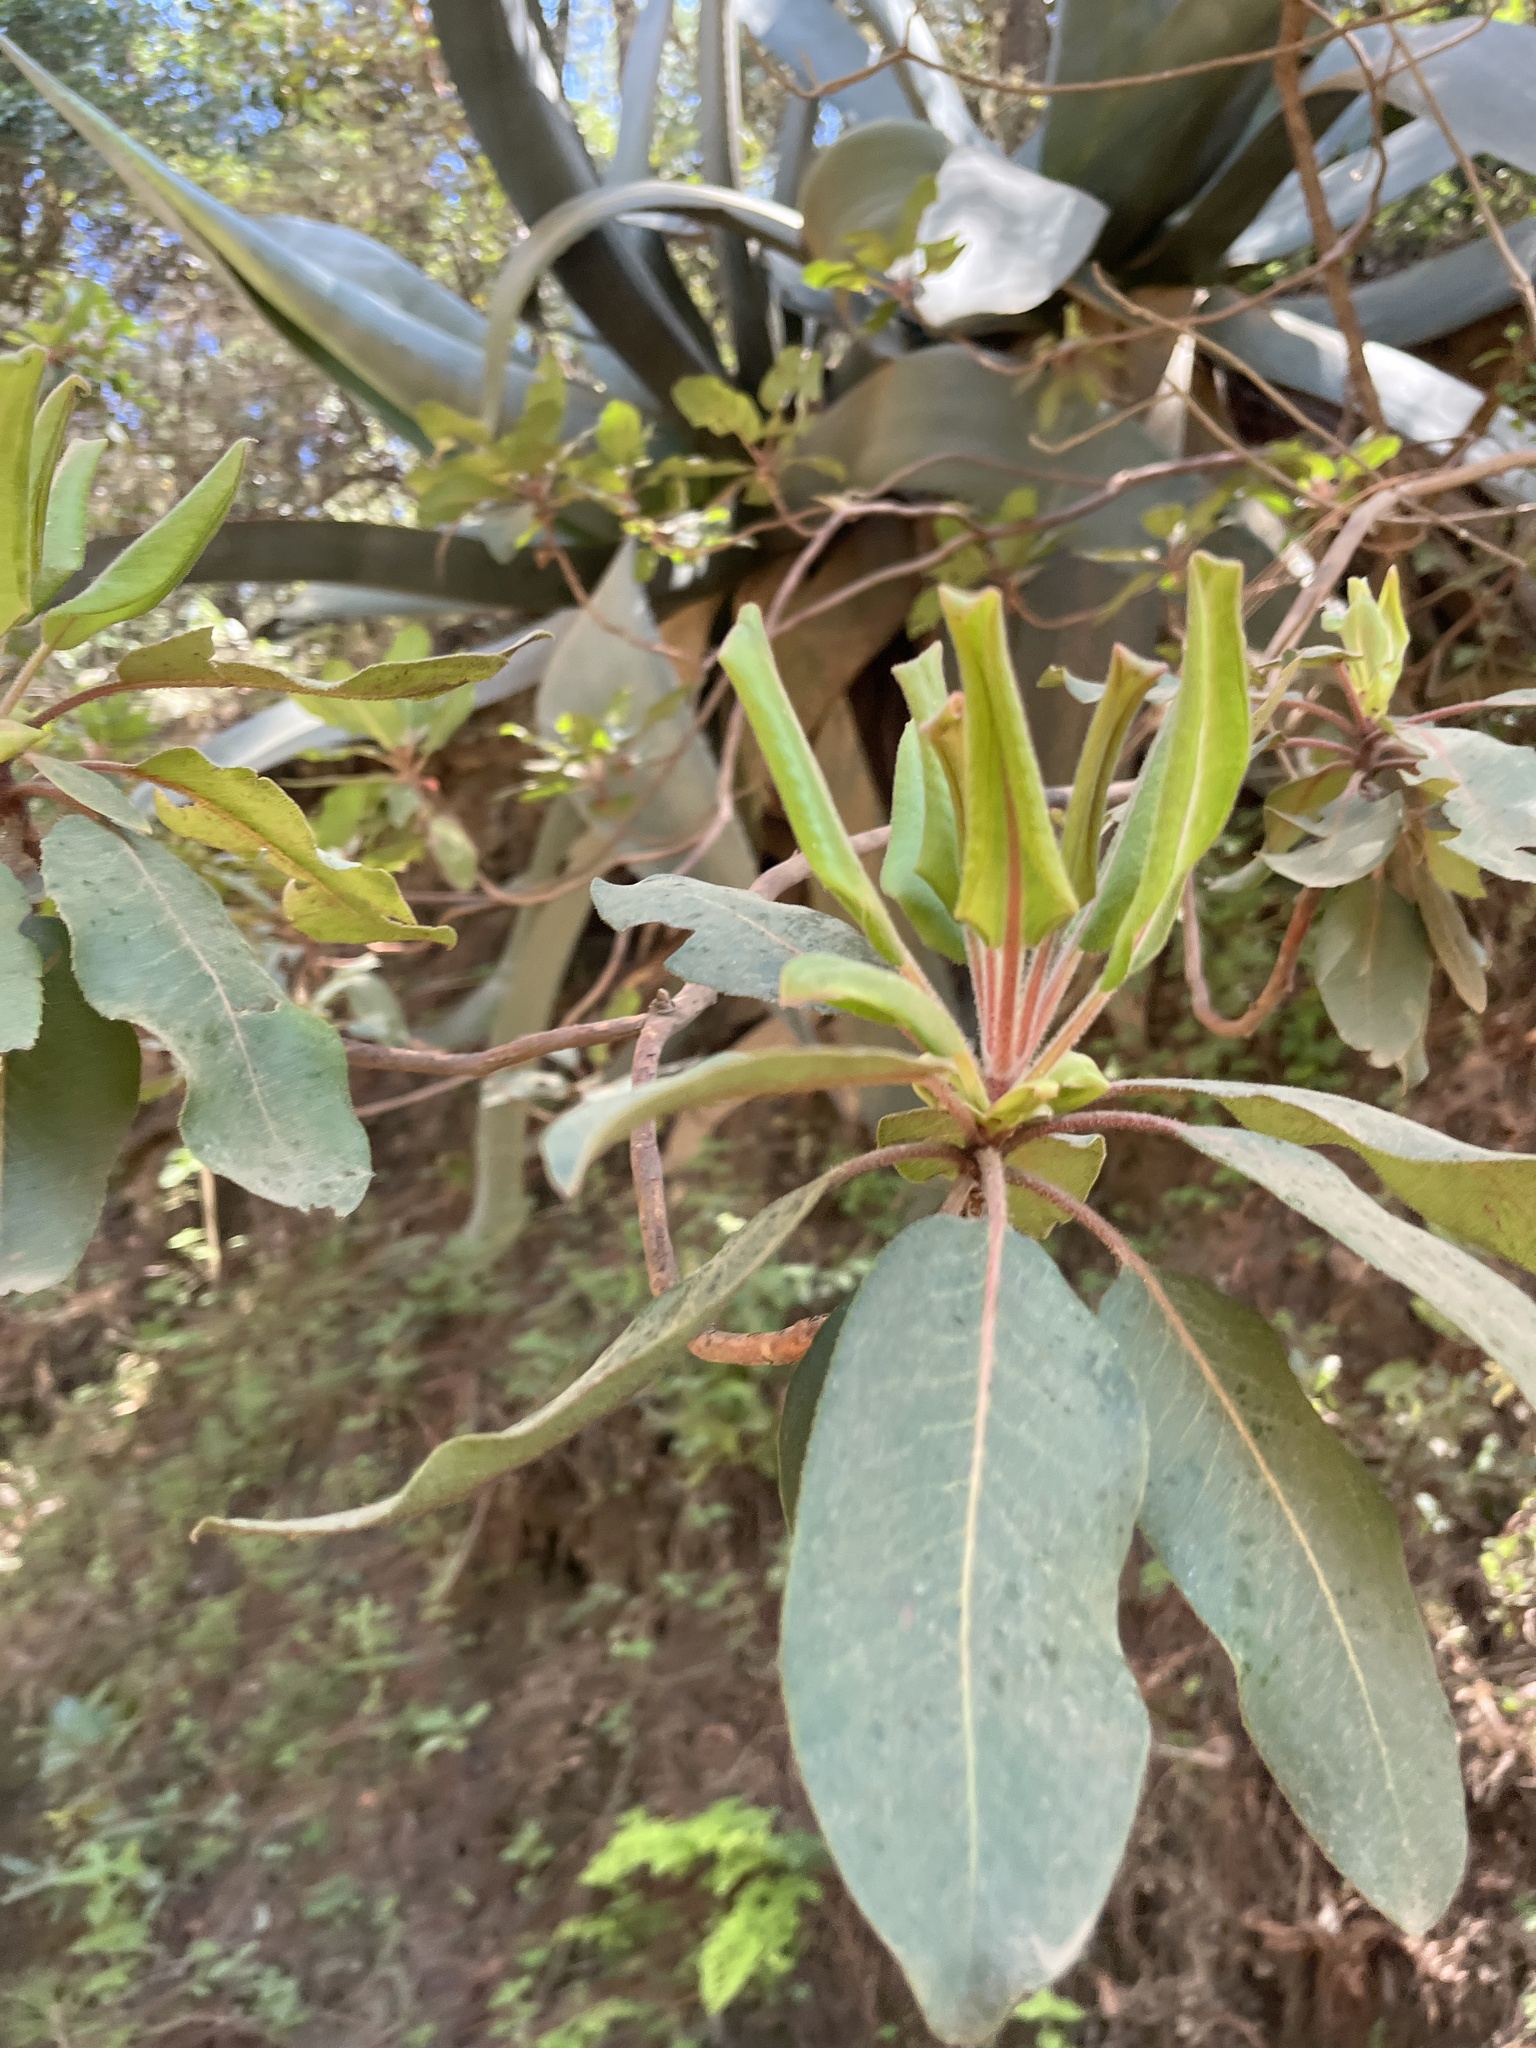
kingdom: Plantae
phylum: Tracheophyta
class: Magnoliopsida
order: Ericales
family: Ericaceae
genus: Arbutus
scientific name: Arbutus xalapensis
